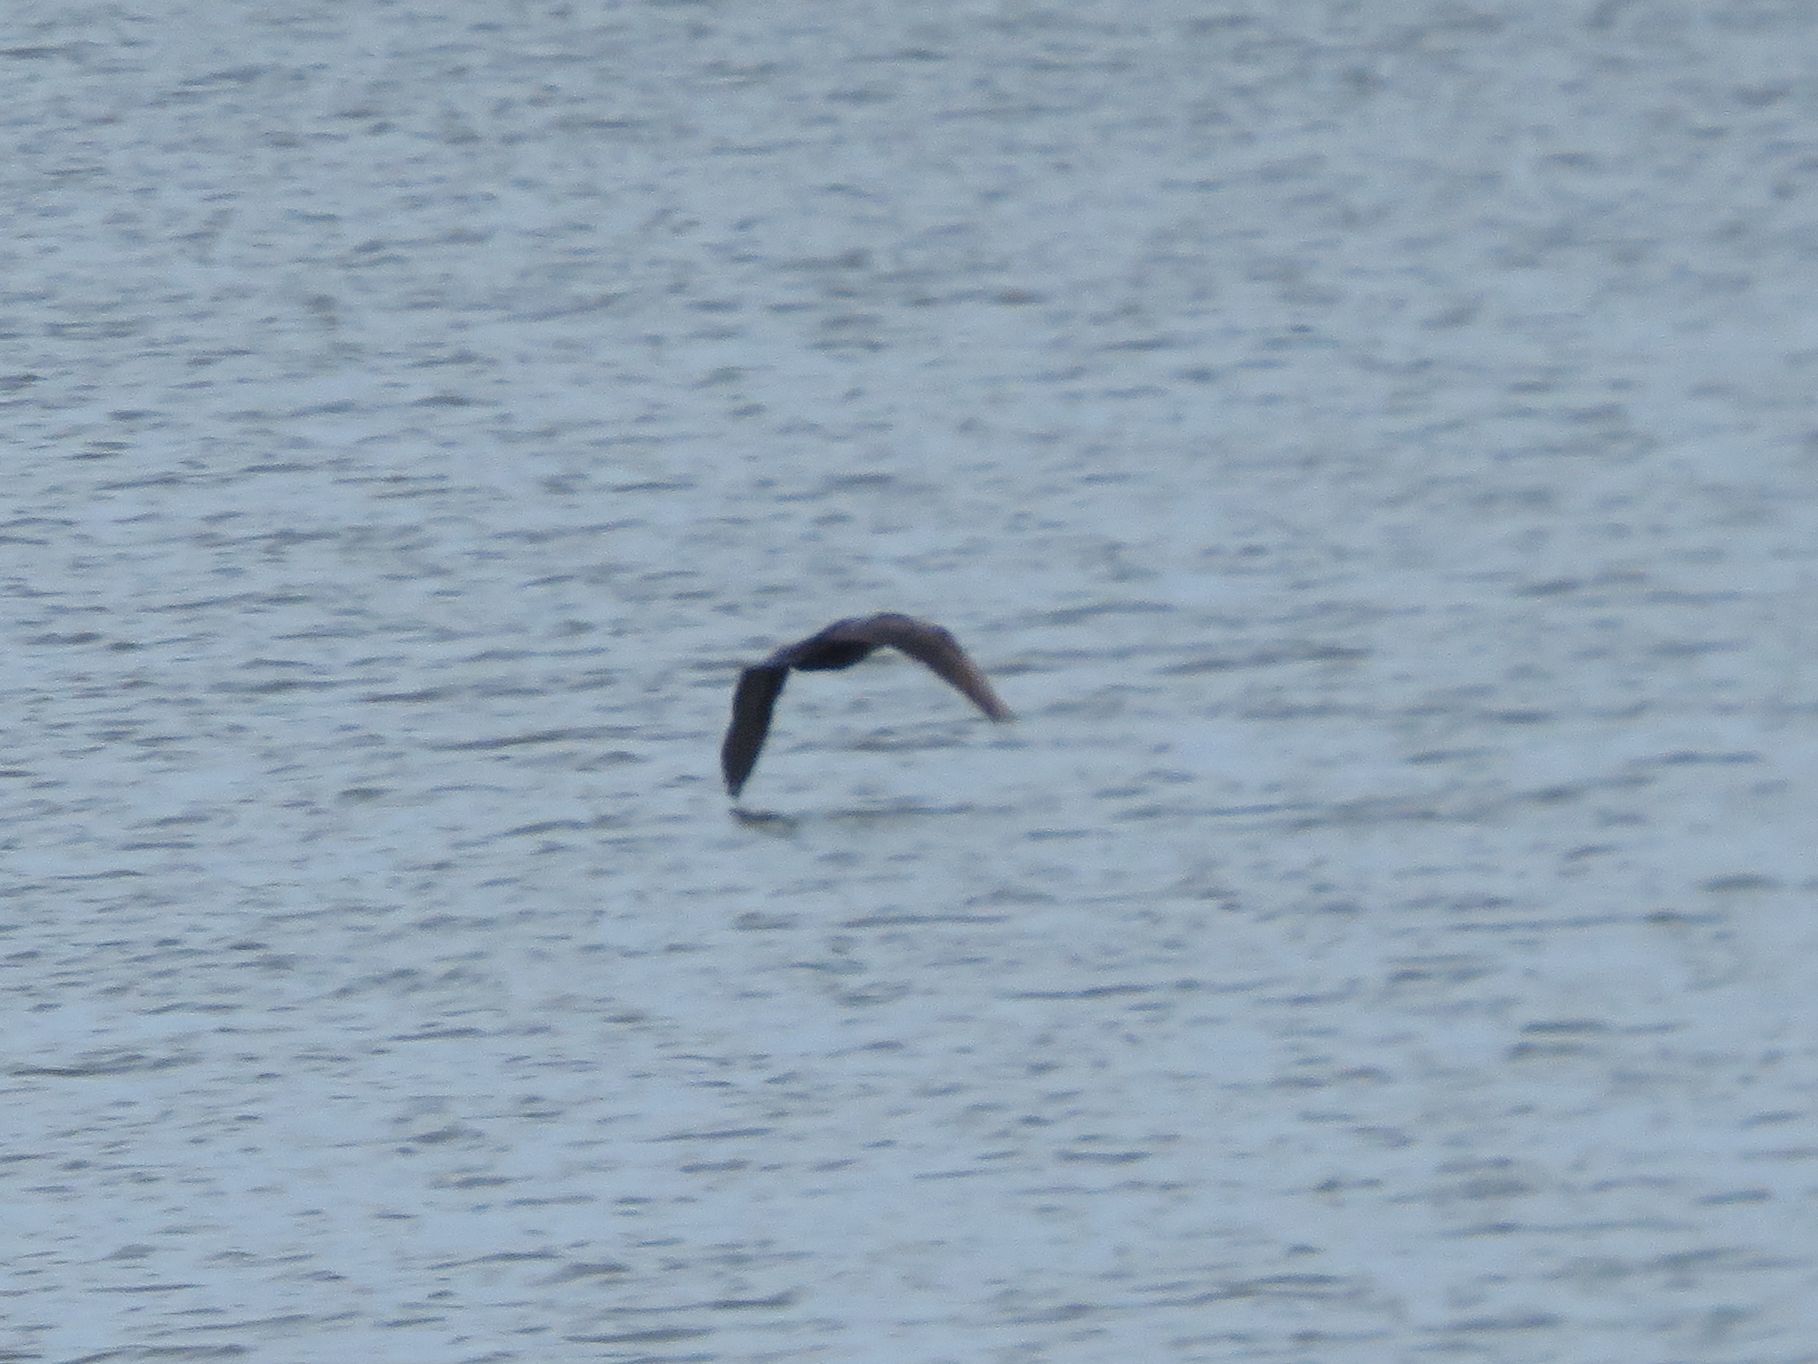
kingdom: Animalia
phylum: Chordata
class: Aves
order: Pelecaniformes
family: Ardeidae
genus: Nycticorax
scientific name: Nycticorax nycticorax
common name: Black-crowned night heron
